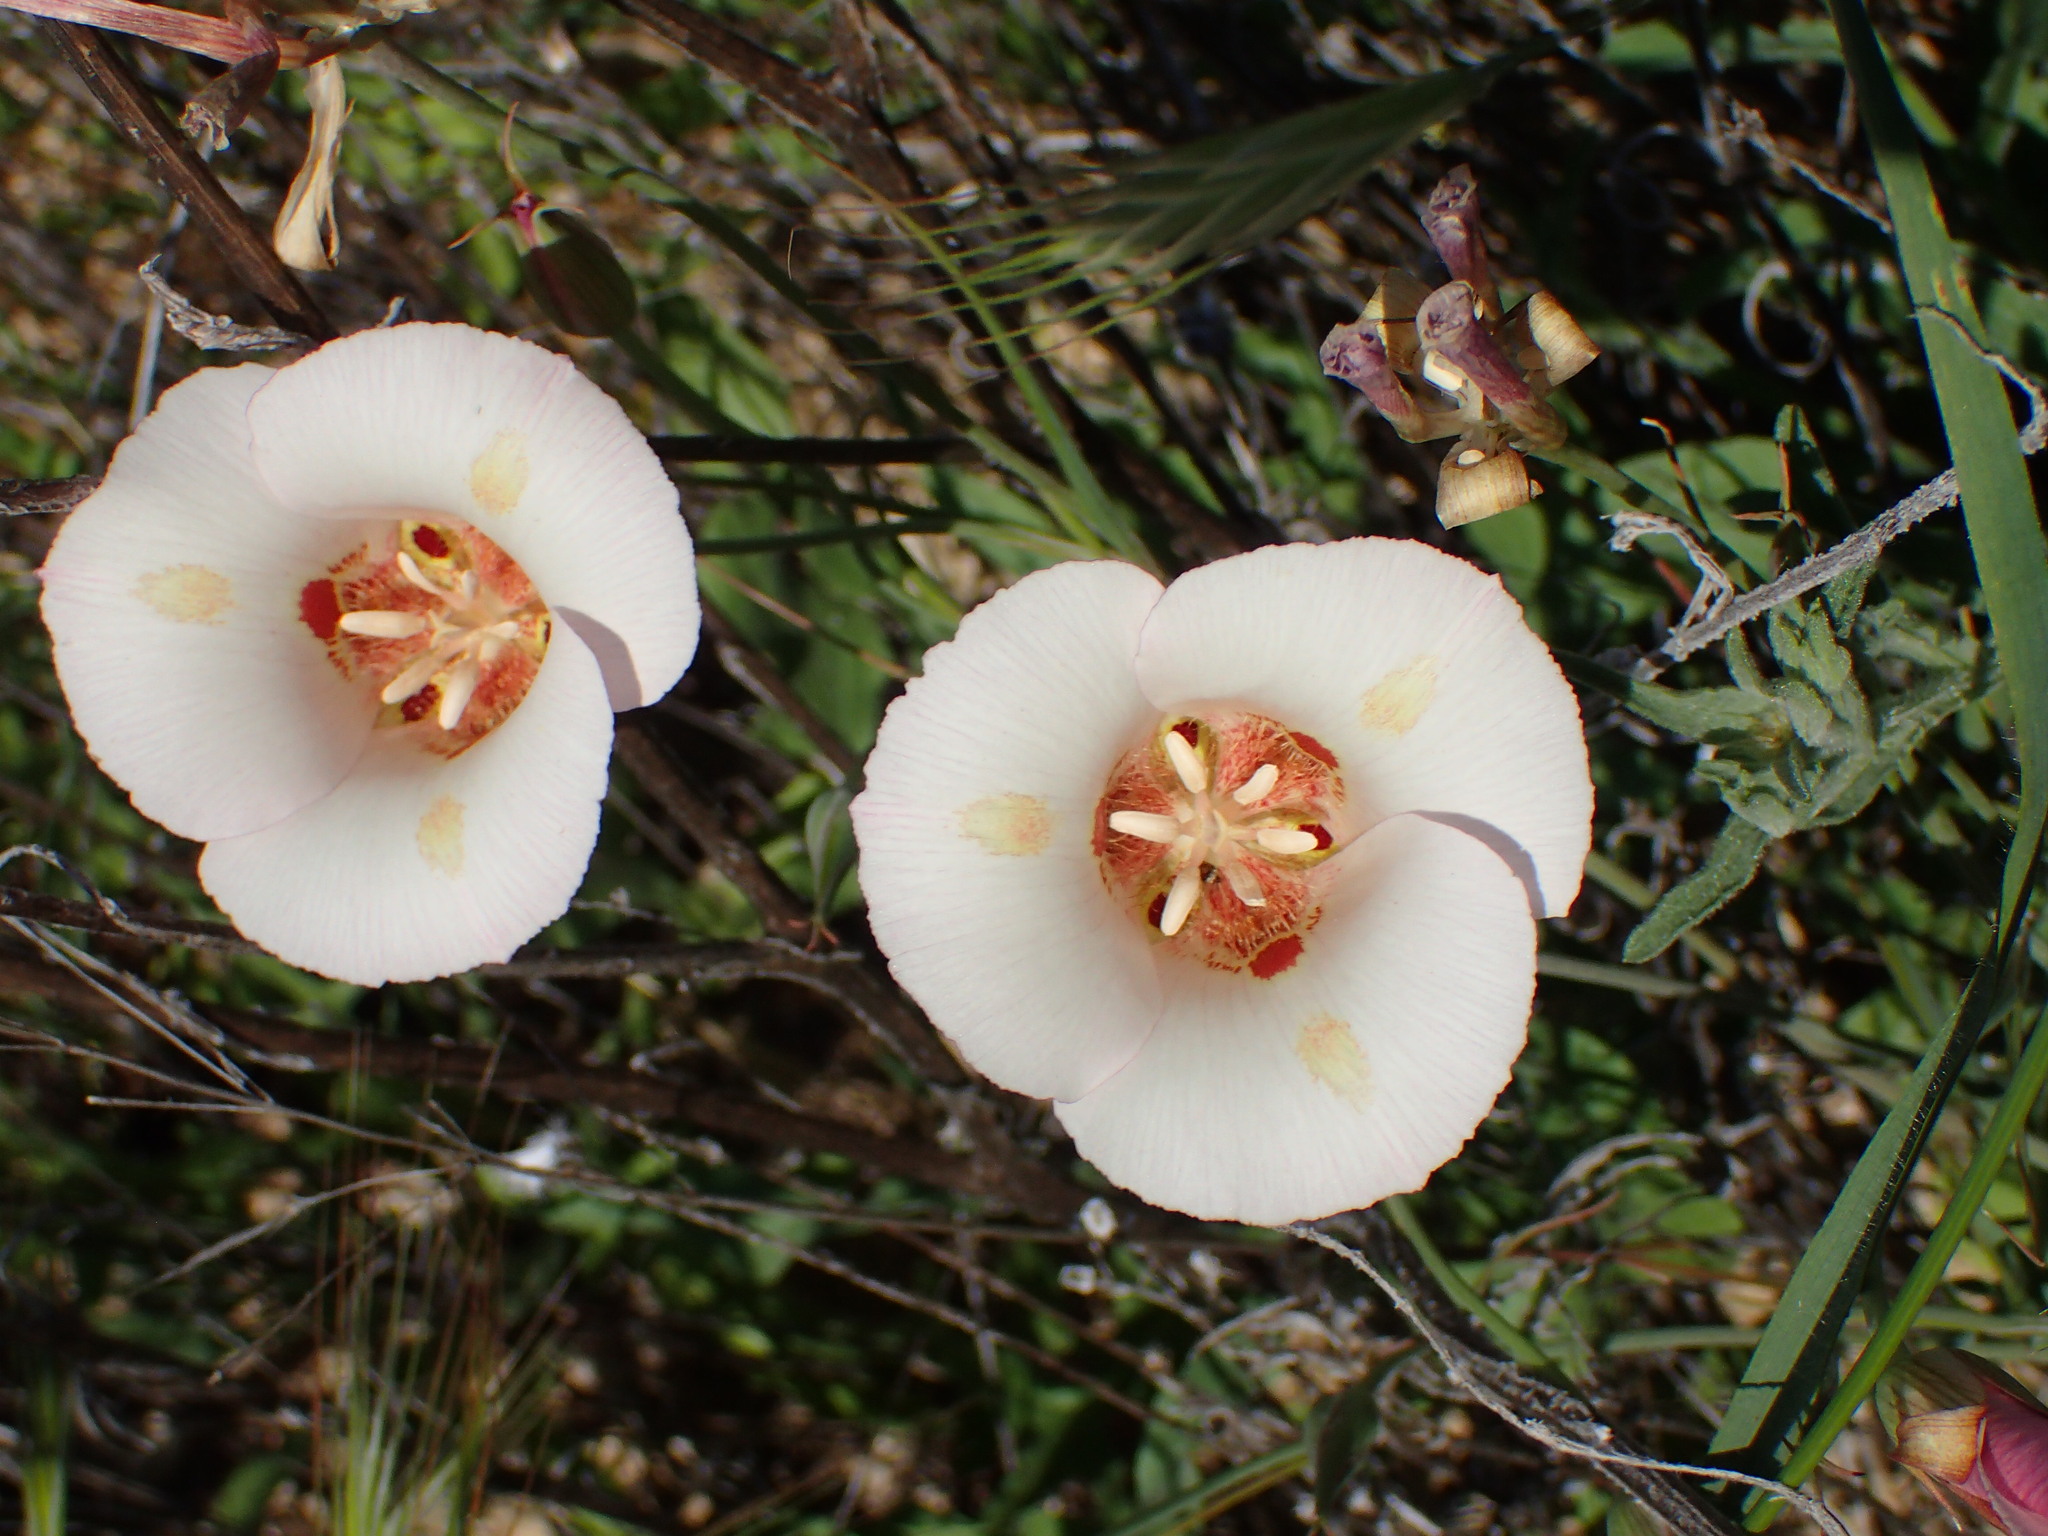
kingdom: Plantae
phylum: Tracheophyta
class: Liliopsida
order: Liliales
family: Liliaceae
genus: Calochortus
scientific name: Calochortus venustus
